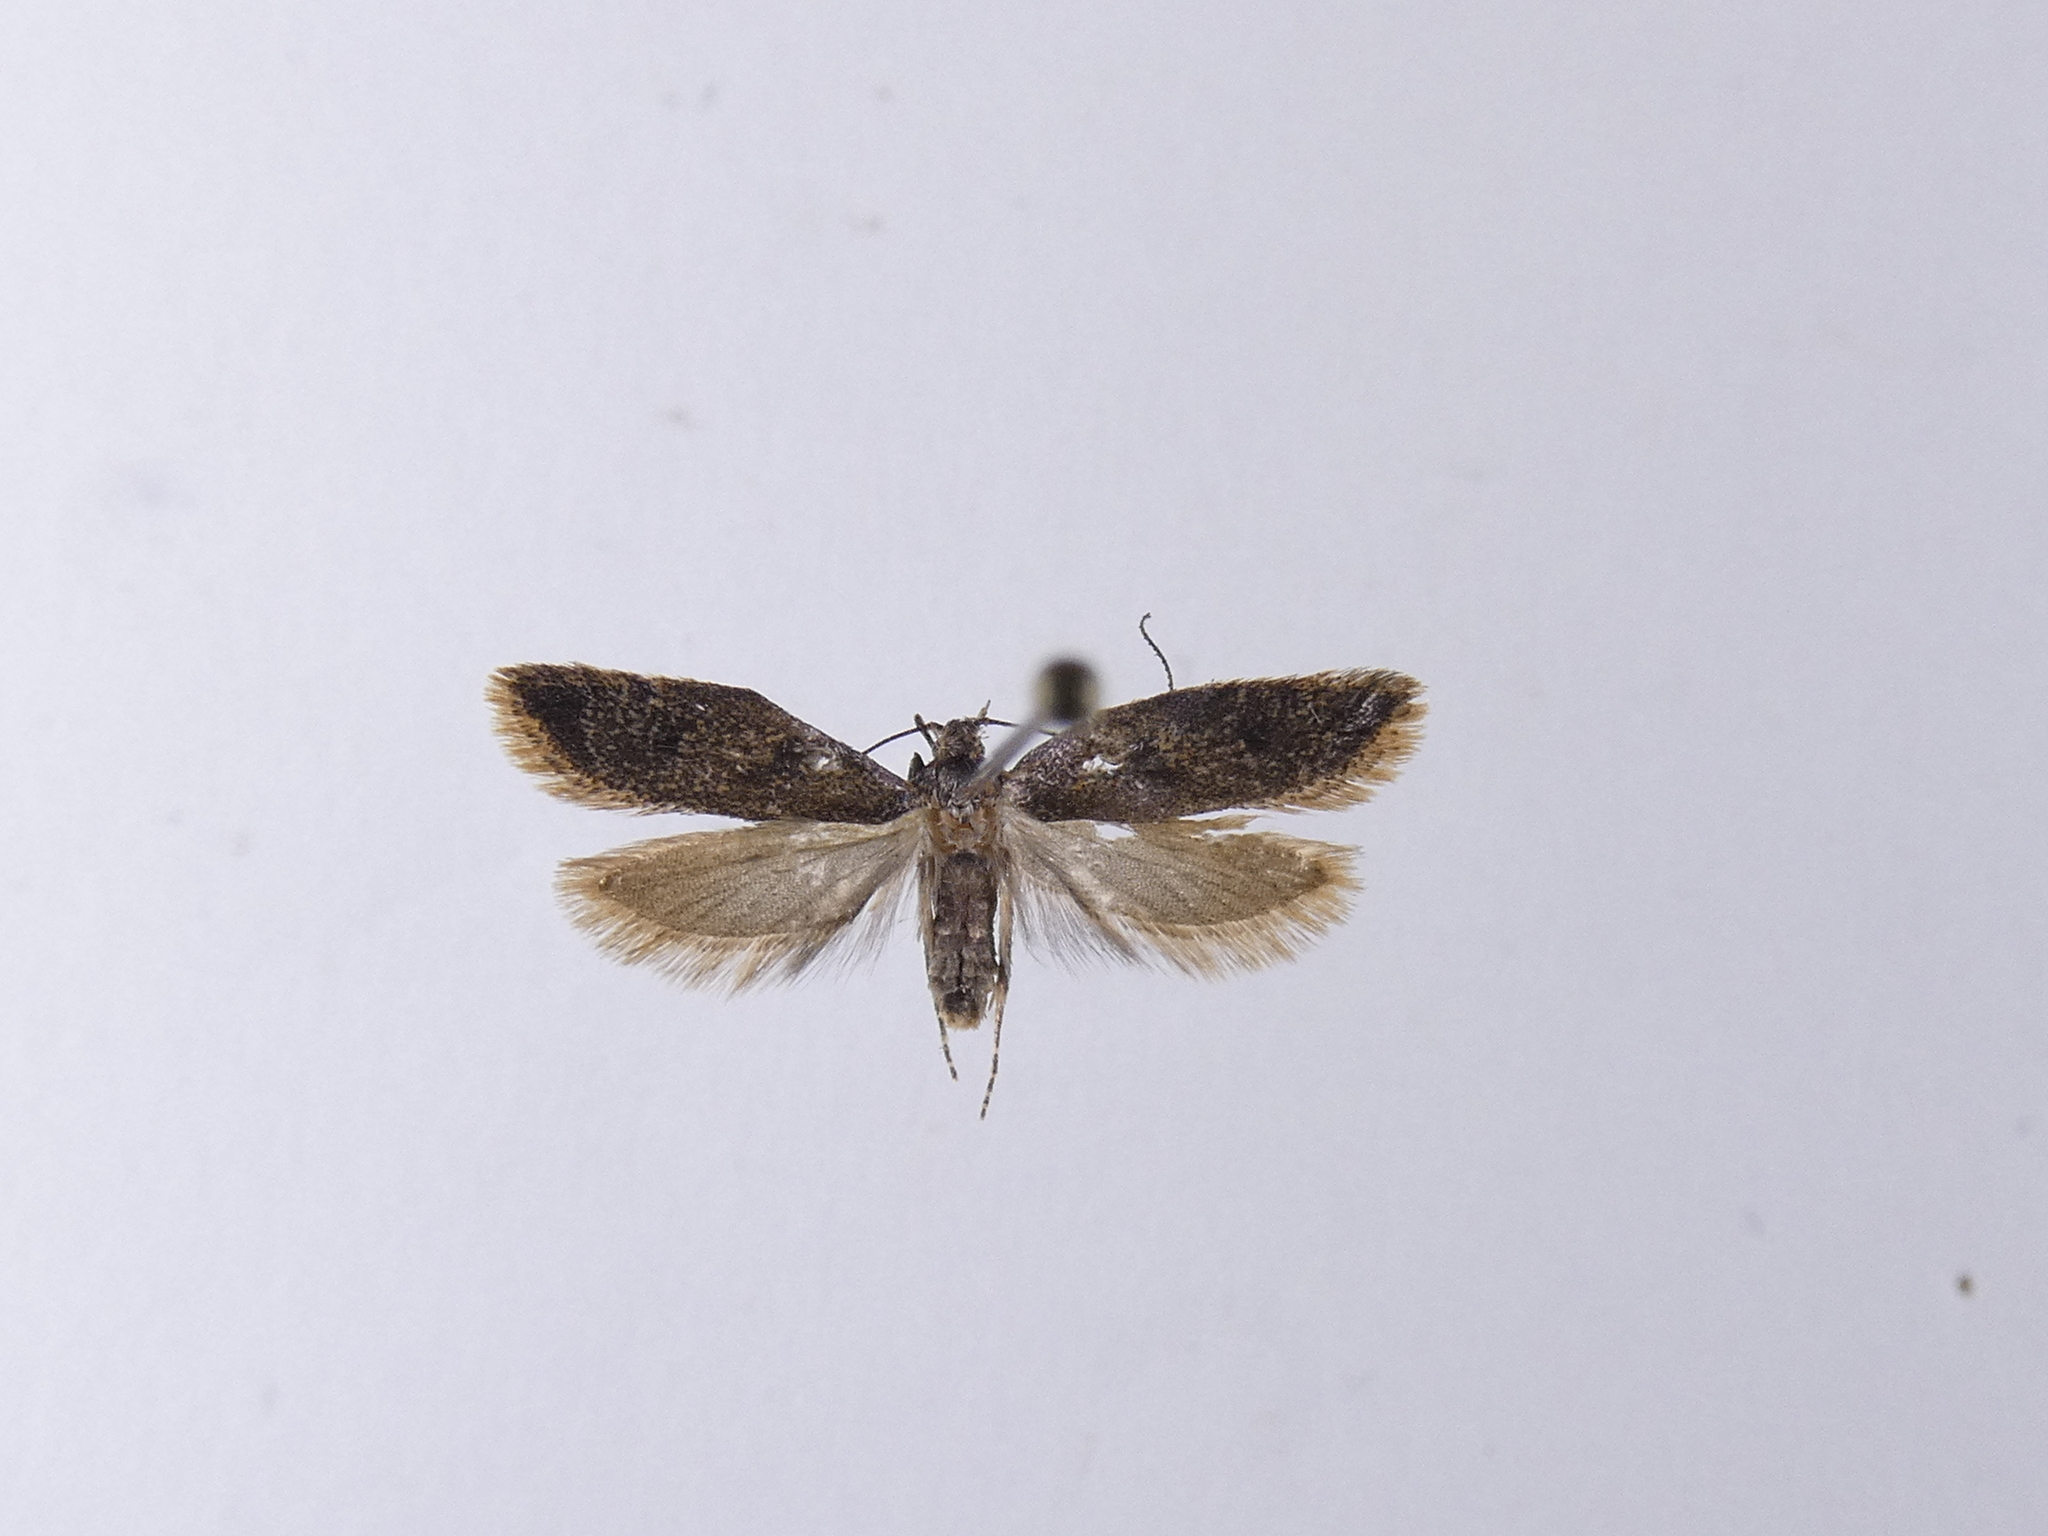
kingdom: Animalia
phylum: Arthropoda
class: Insecta
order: Lepidoptera
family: Oecophoridae
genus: Gymnobathra
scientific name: Gymnobathra tholodella
